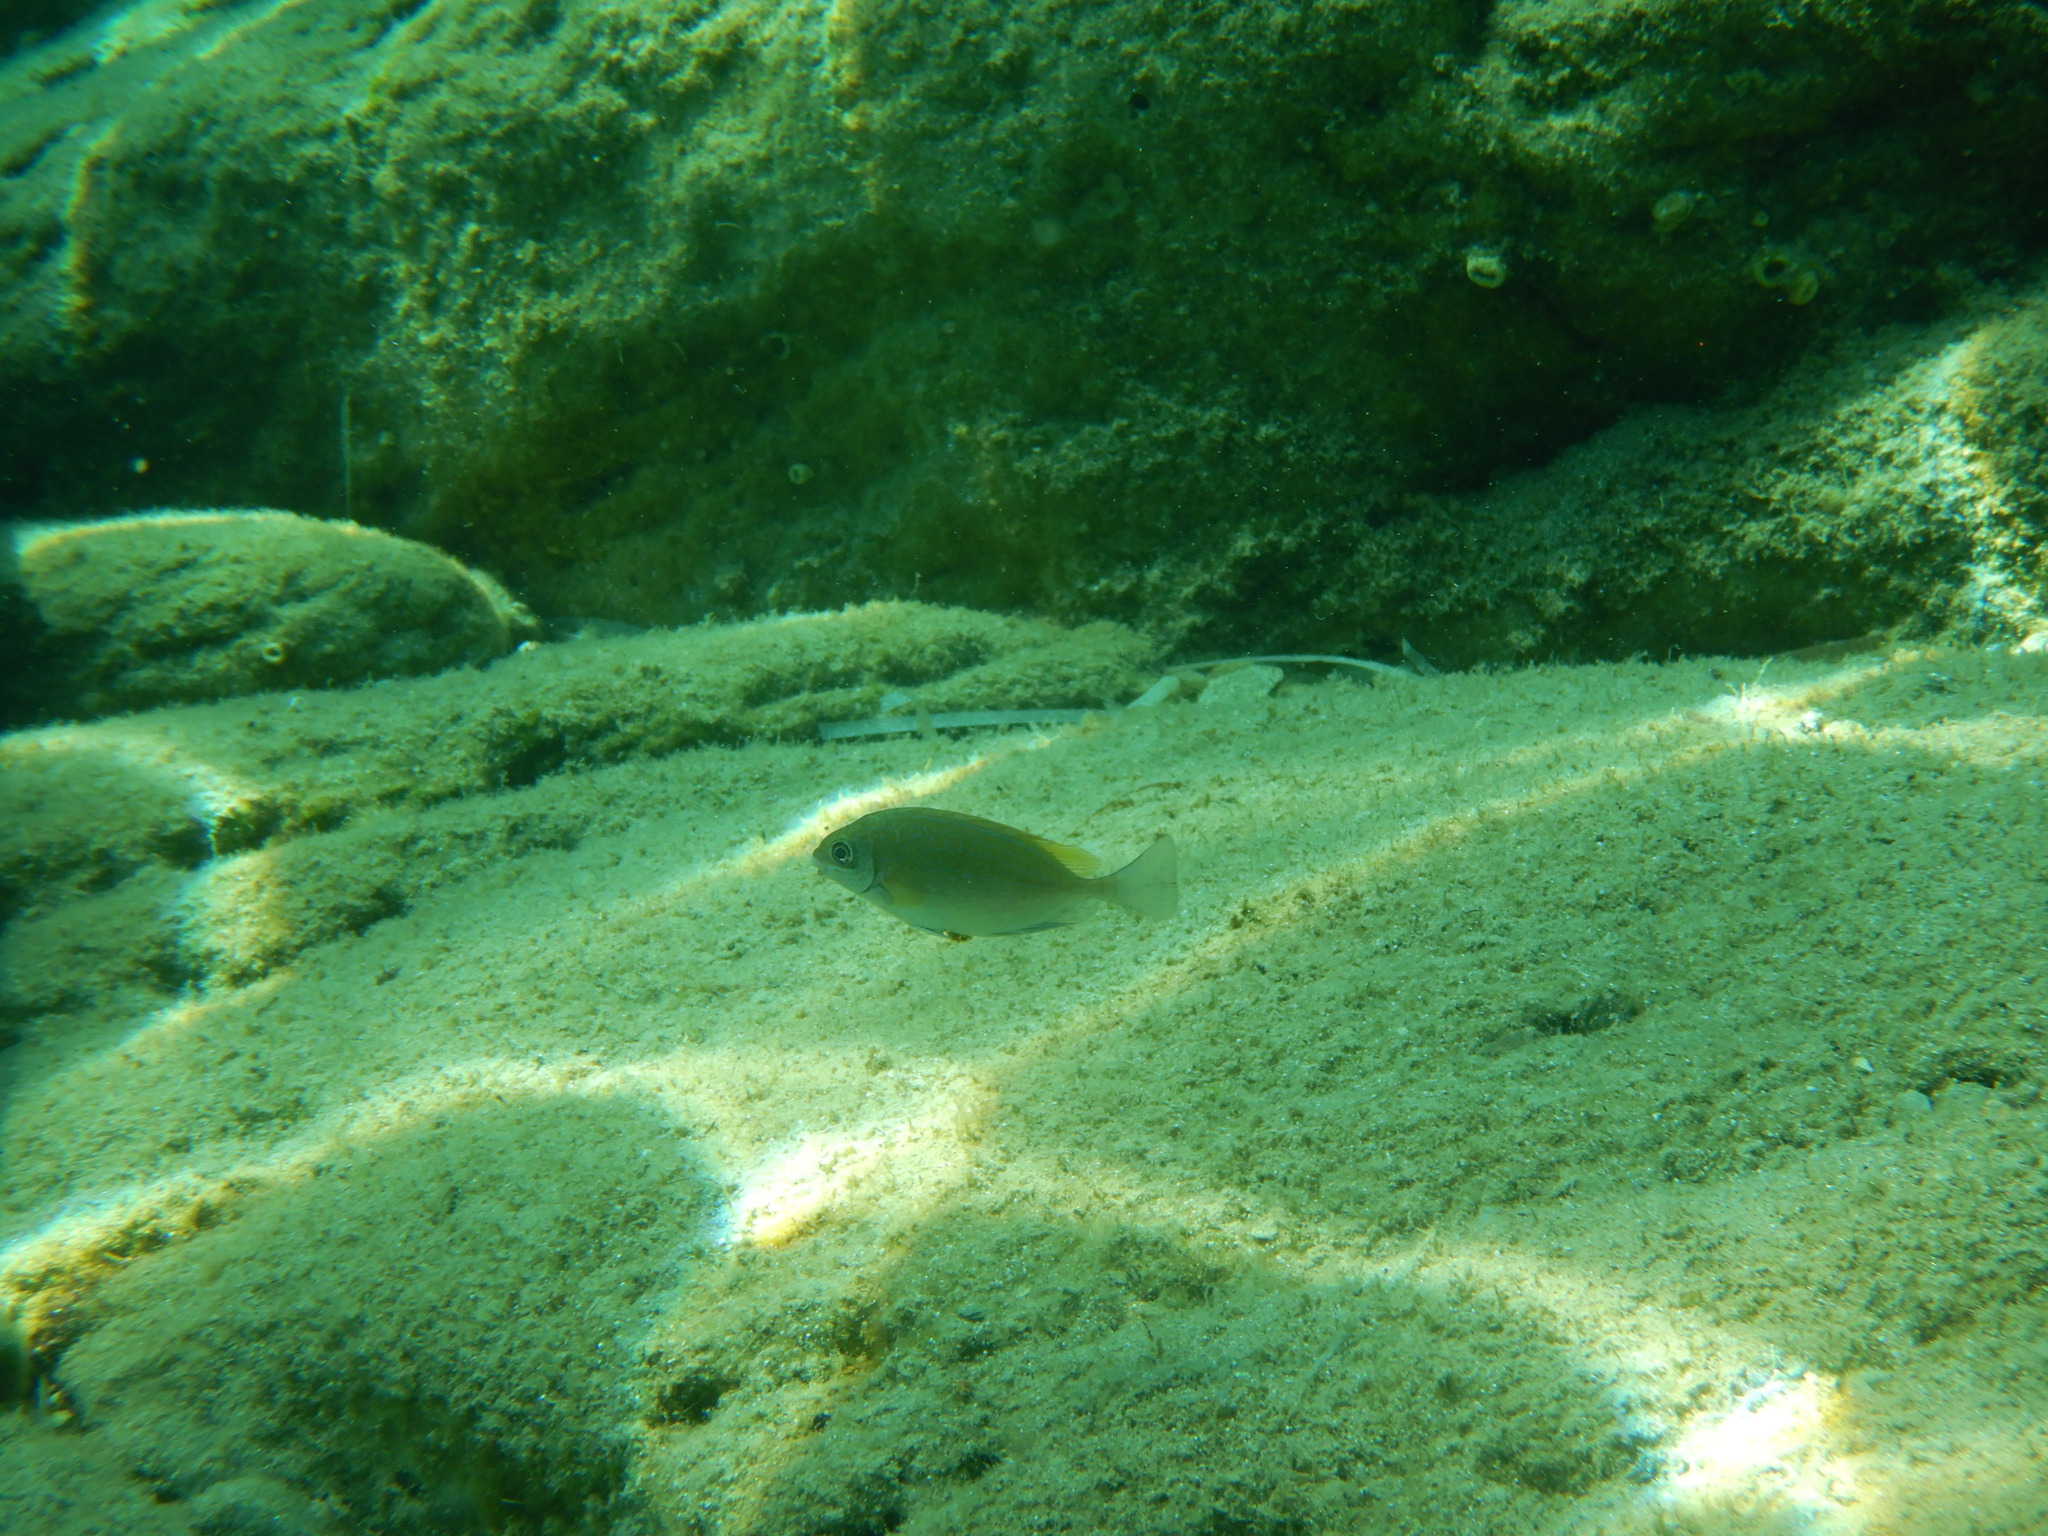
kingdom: Animalia
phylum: Chordata
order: Perciformes
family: Siganidae
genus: Siganus
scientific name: Siganus luridus
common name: Dusky spinefoot
